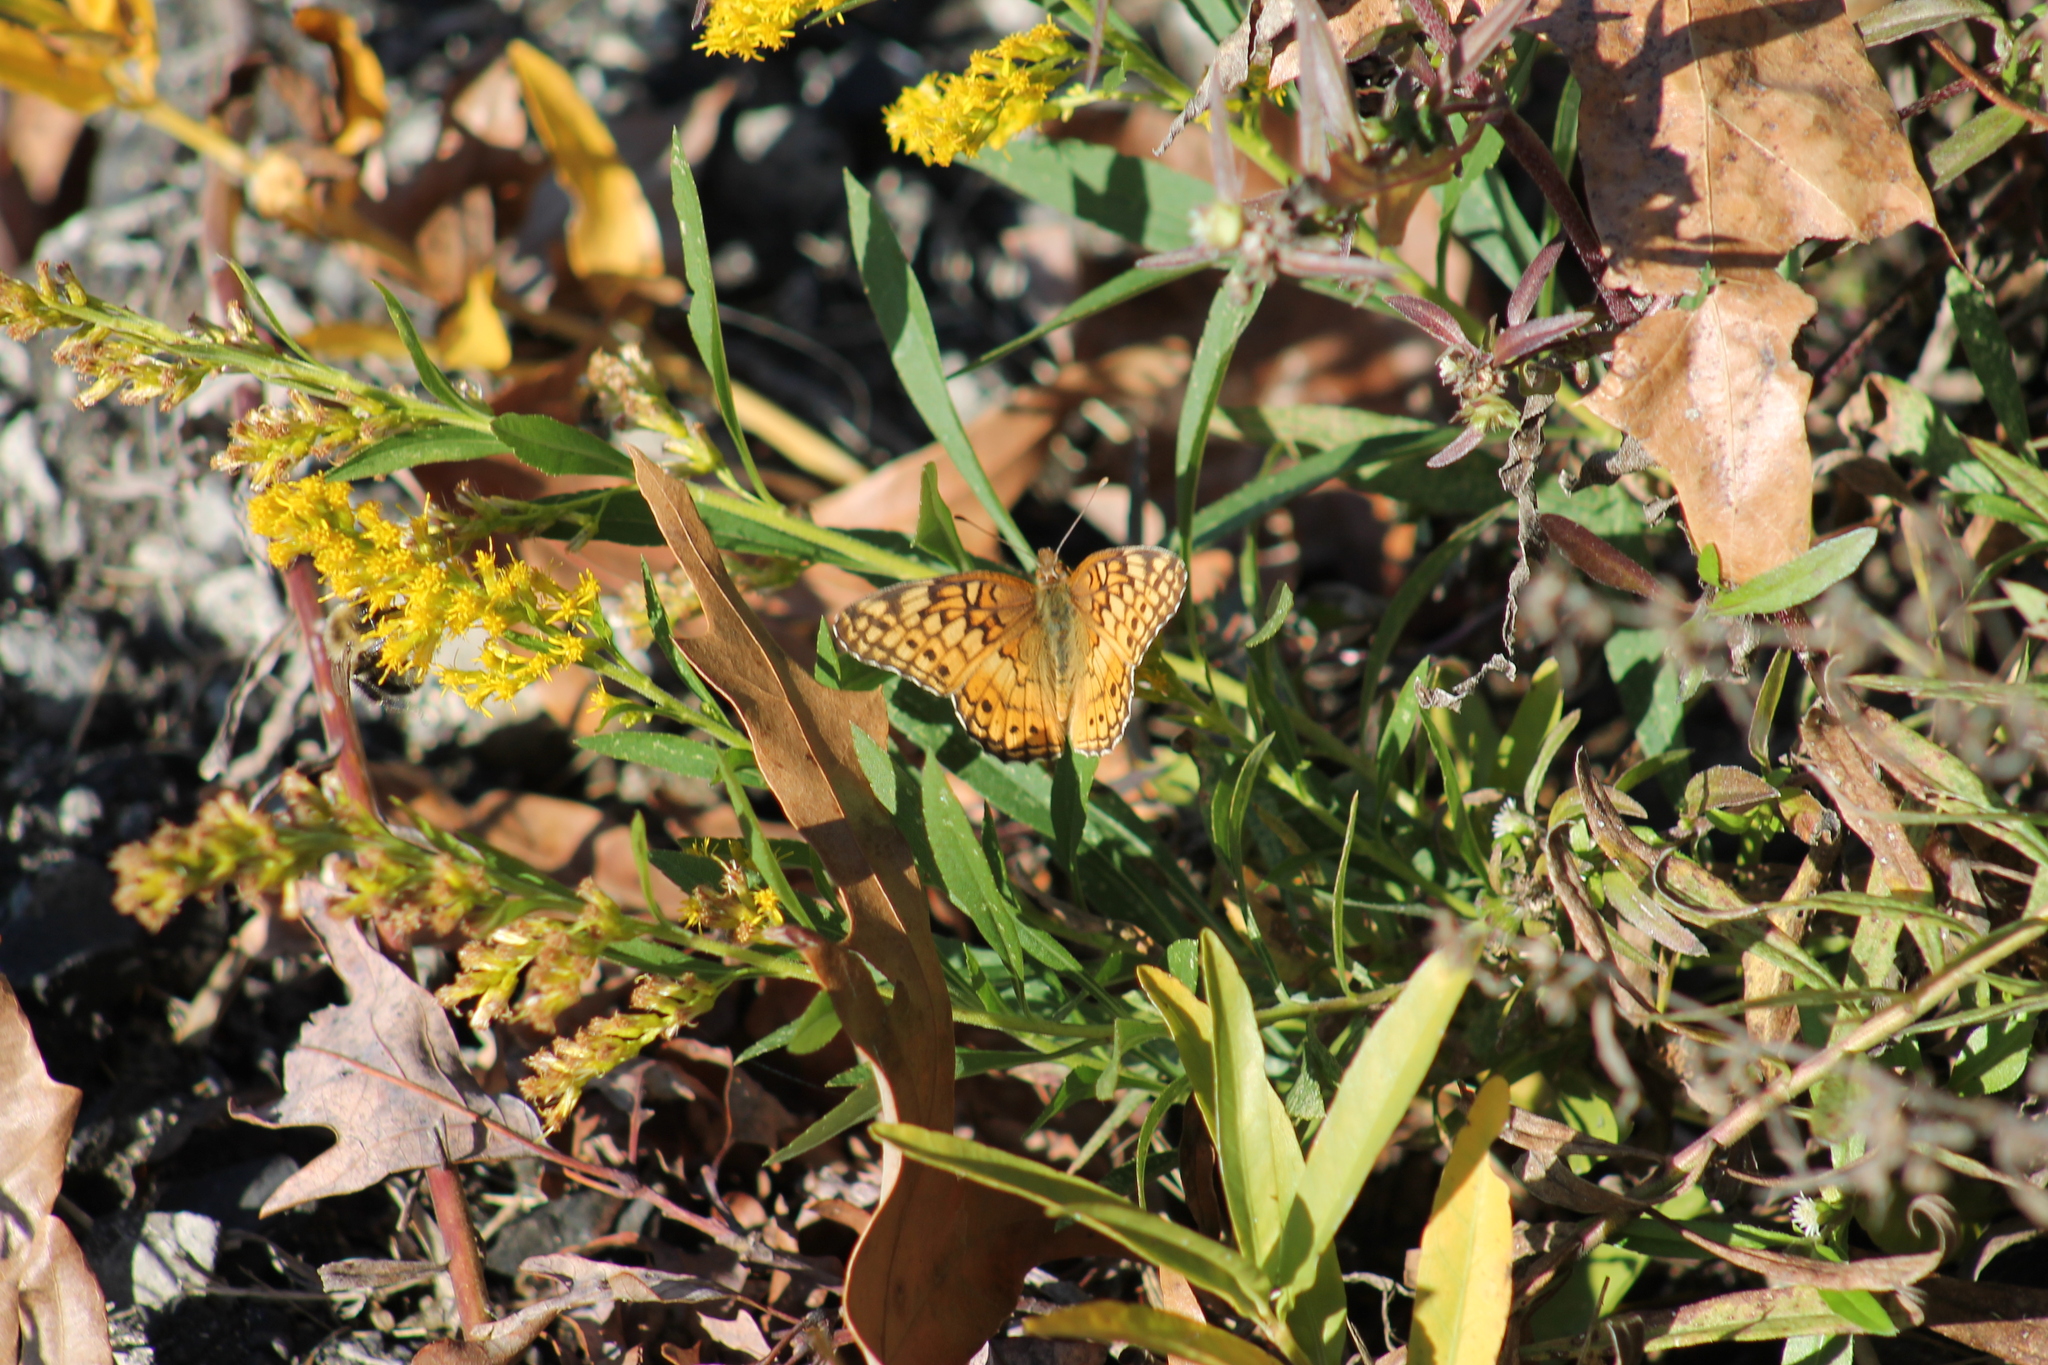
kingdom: Animalia
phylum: Arthropoda
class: Insecta
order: Lepidoptera
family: Nymphalidae
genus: Euptoieta
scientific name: Euptoieta claudia
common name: Variegated fritillary
